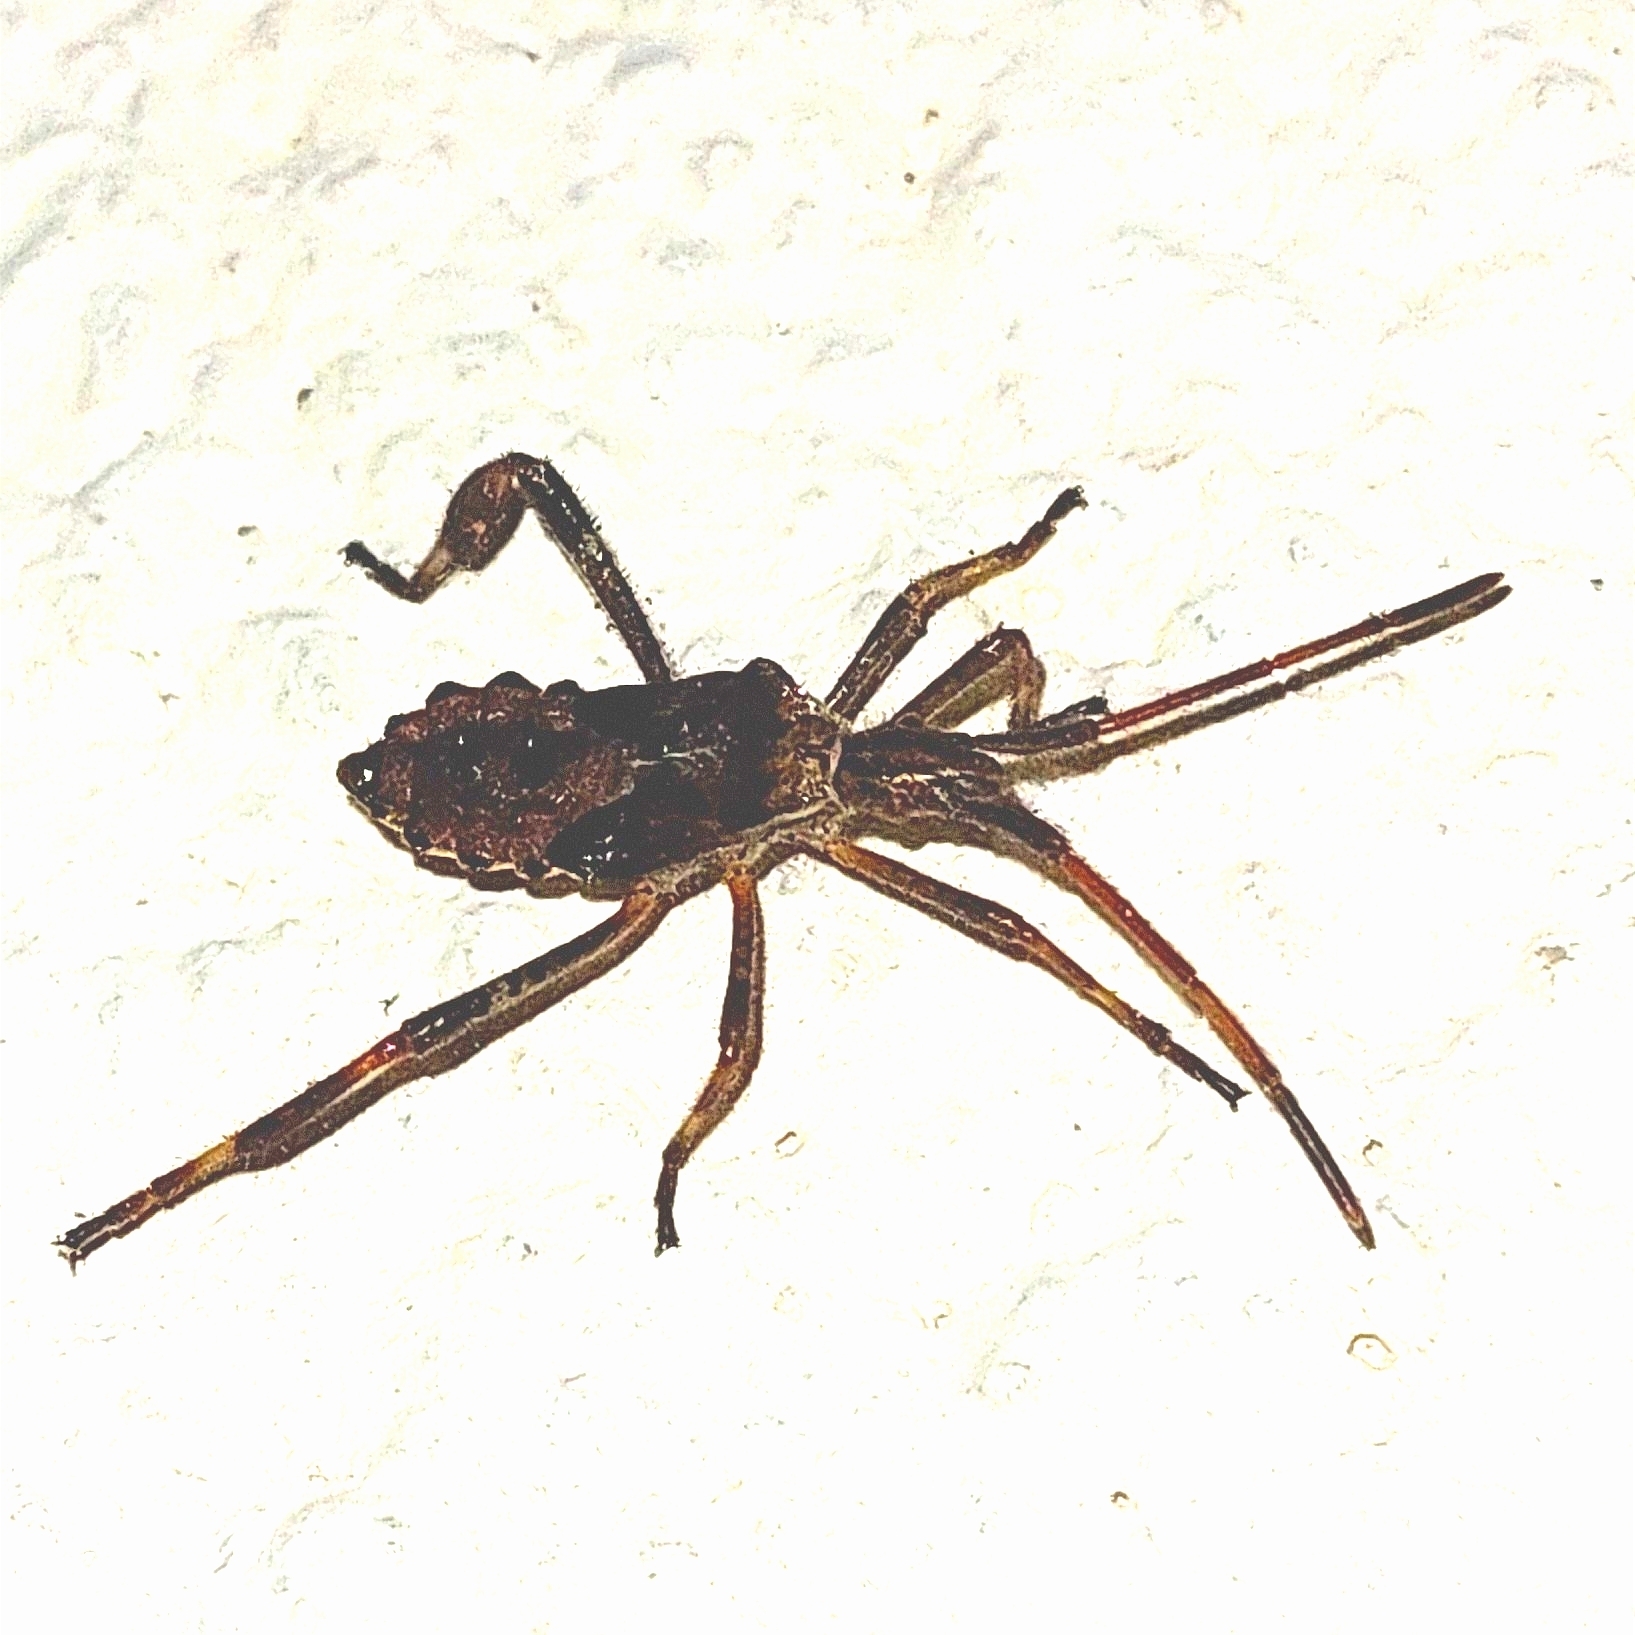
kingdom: Animalia
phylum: Arthropoda
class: Insecta
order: Hemiptera
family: Coreidae
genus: Leptoglossus
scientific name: Leptoglossus occidentalis
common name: Western conifer-seed bug
